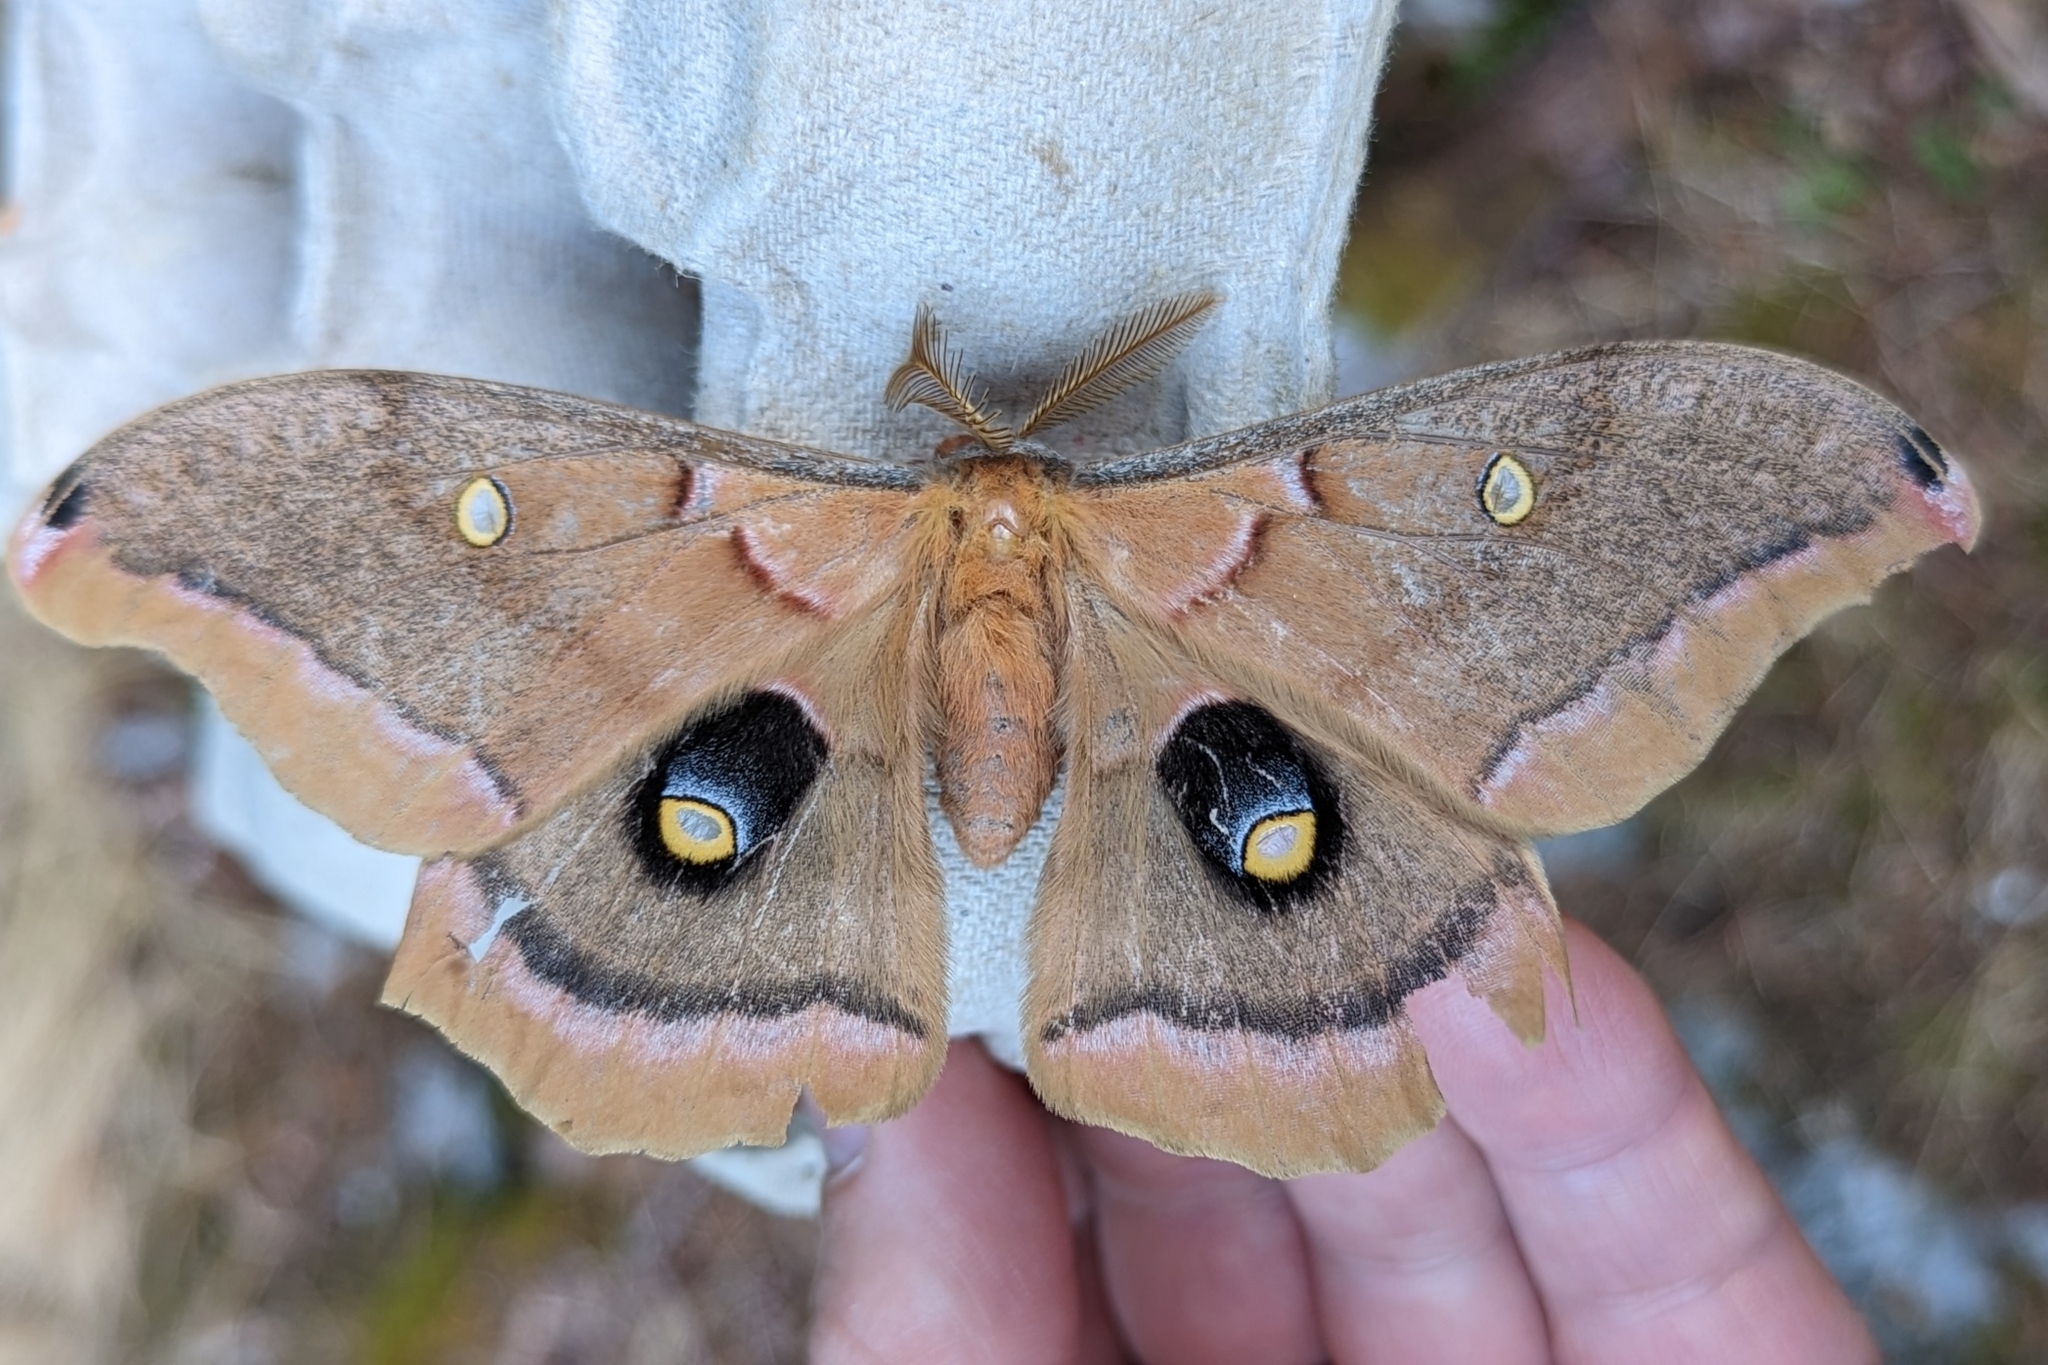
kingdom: Animalia
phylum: Arthropoda
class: Insecta
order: Lepidoptera
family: Saturniidae
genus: Antheraea
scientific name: Antheraea polyphemus
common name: Polyphemus moth
